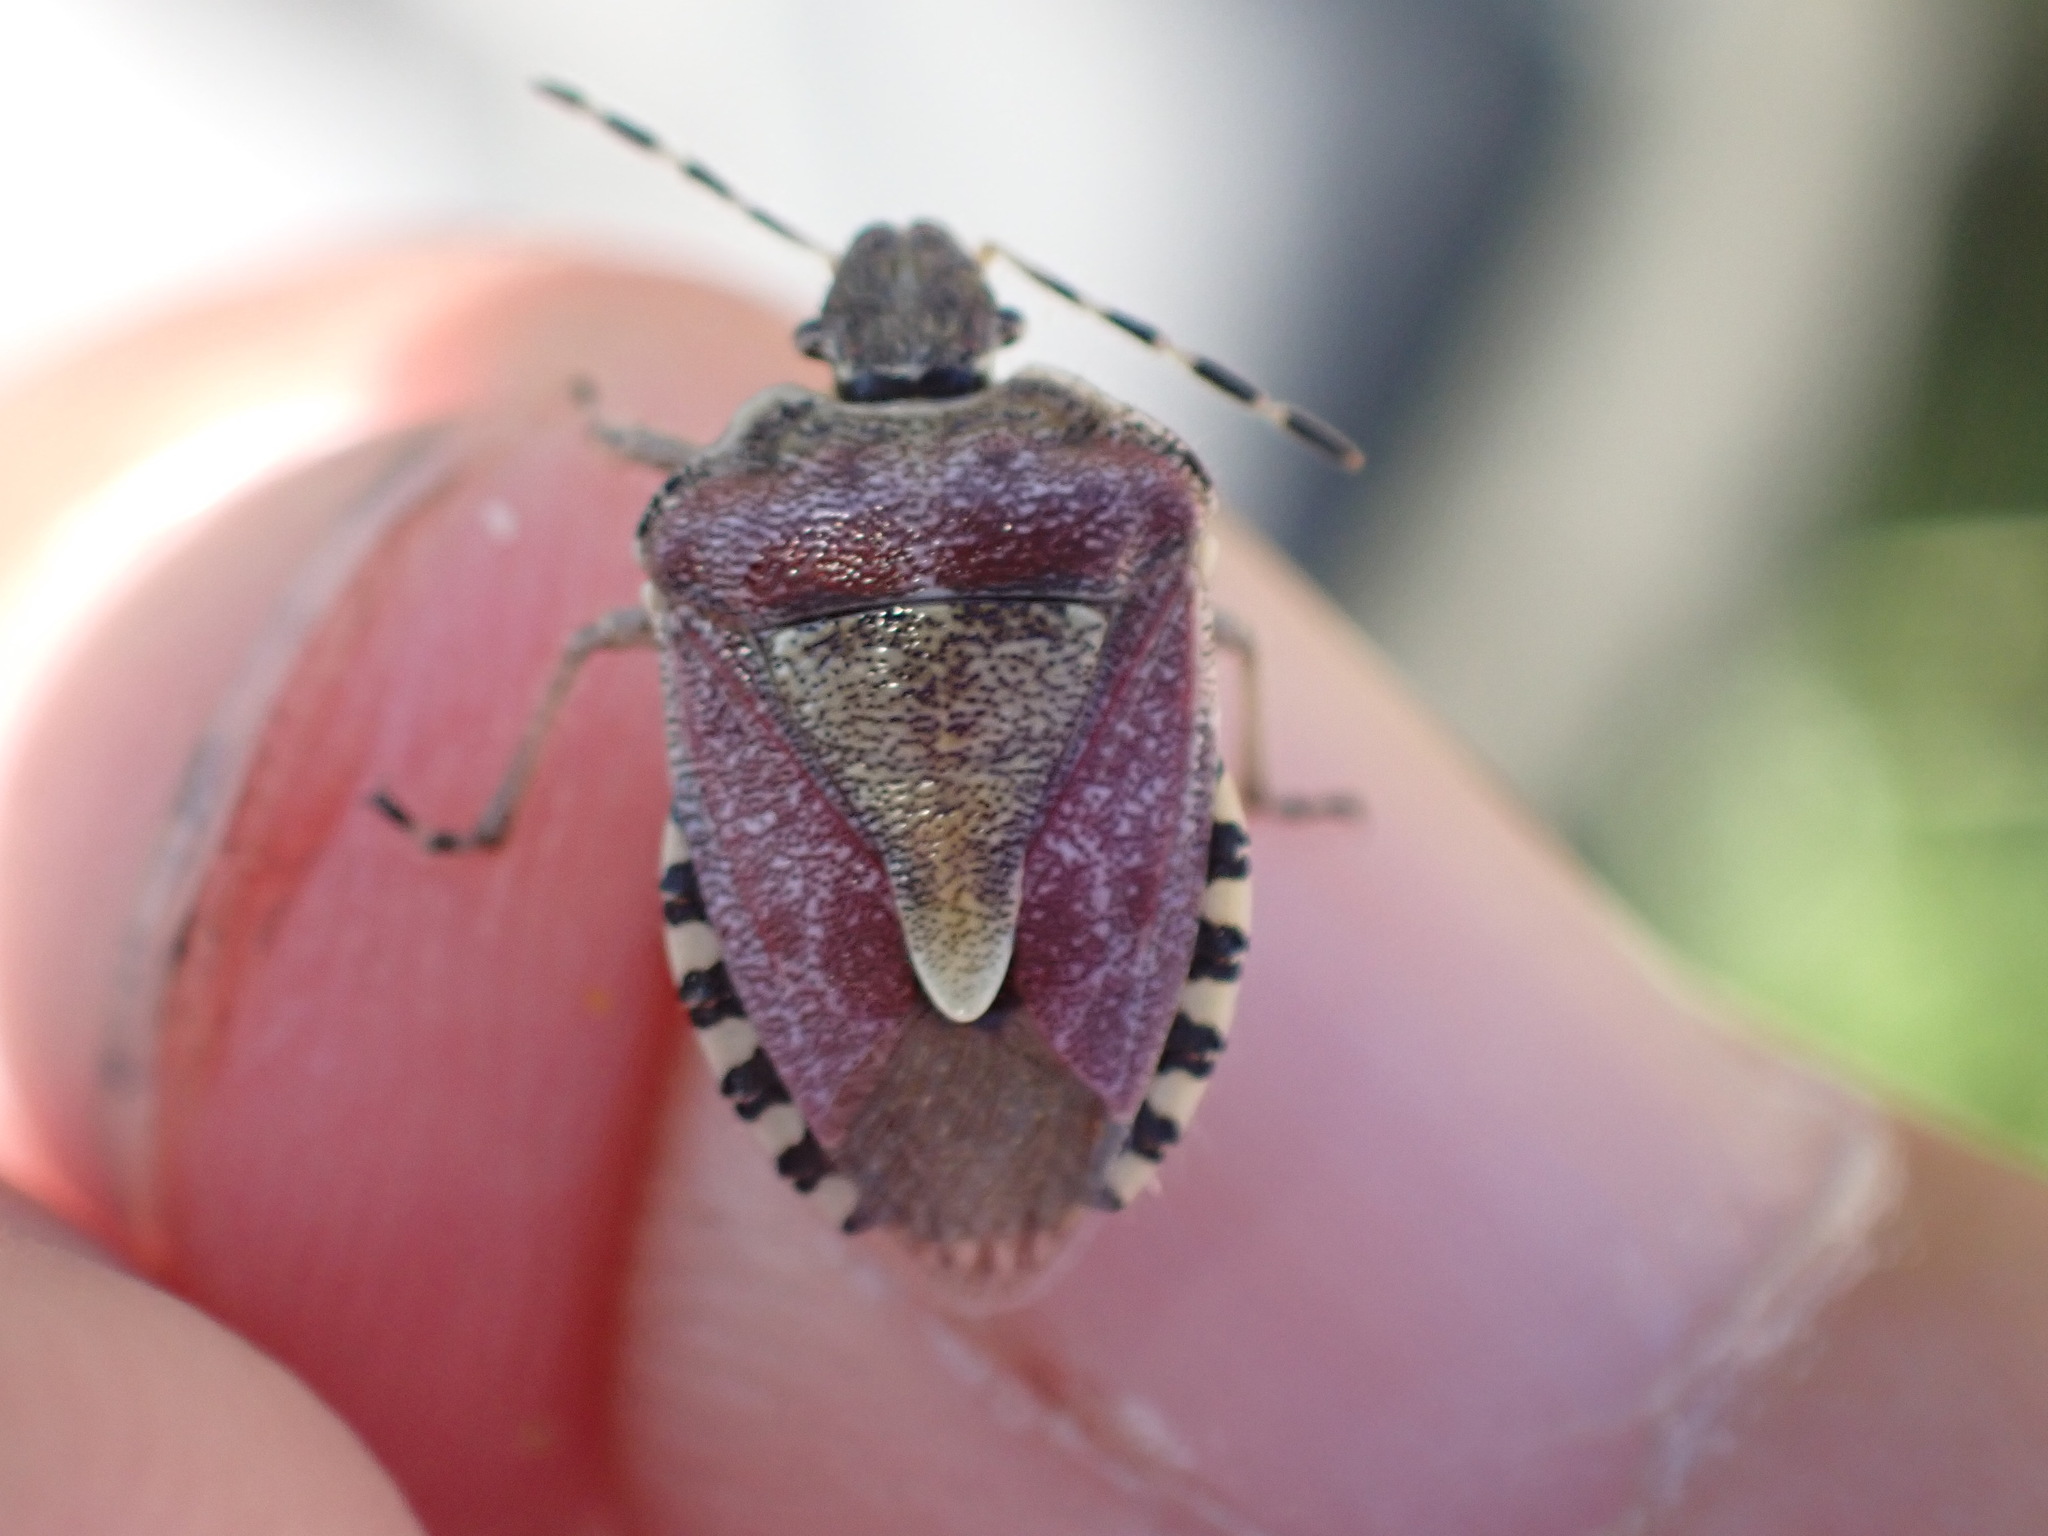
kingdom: Animalia
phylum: Arthropoda
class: Insecta
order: Hemiptera
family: Pentatomidae
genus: Dolycoris
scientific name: Dolycoris baccarum
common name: Sloe bug
